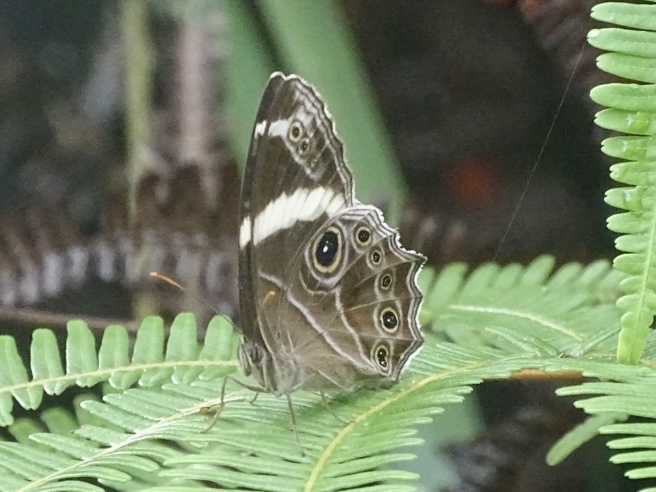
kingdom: Animalia
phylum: Arthropoda
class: Insecta
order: Lepidoptera
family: Nymphalidae
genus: Lethe
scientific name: Lethe confusa
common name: Banded treebrown
